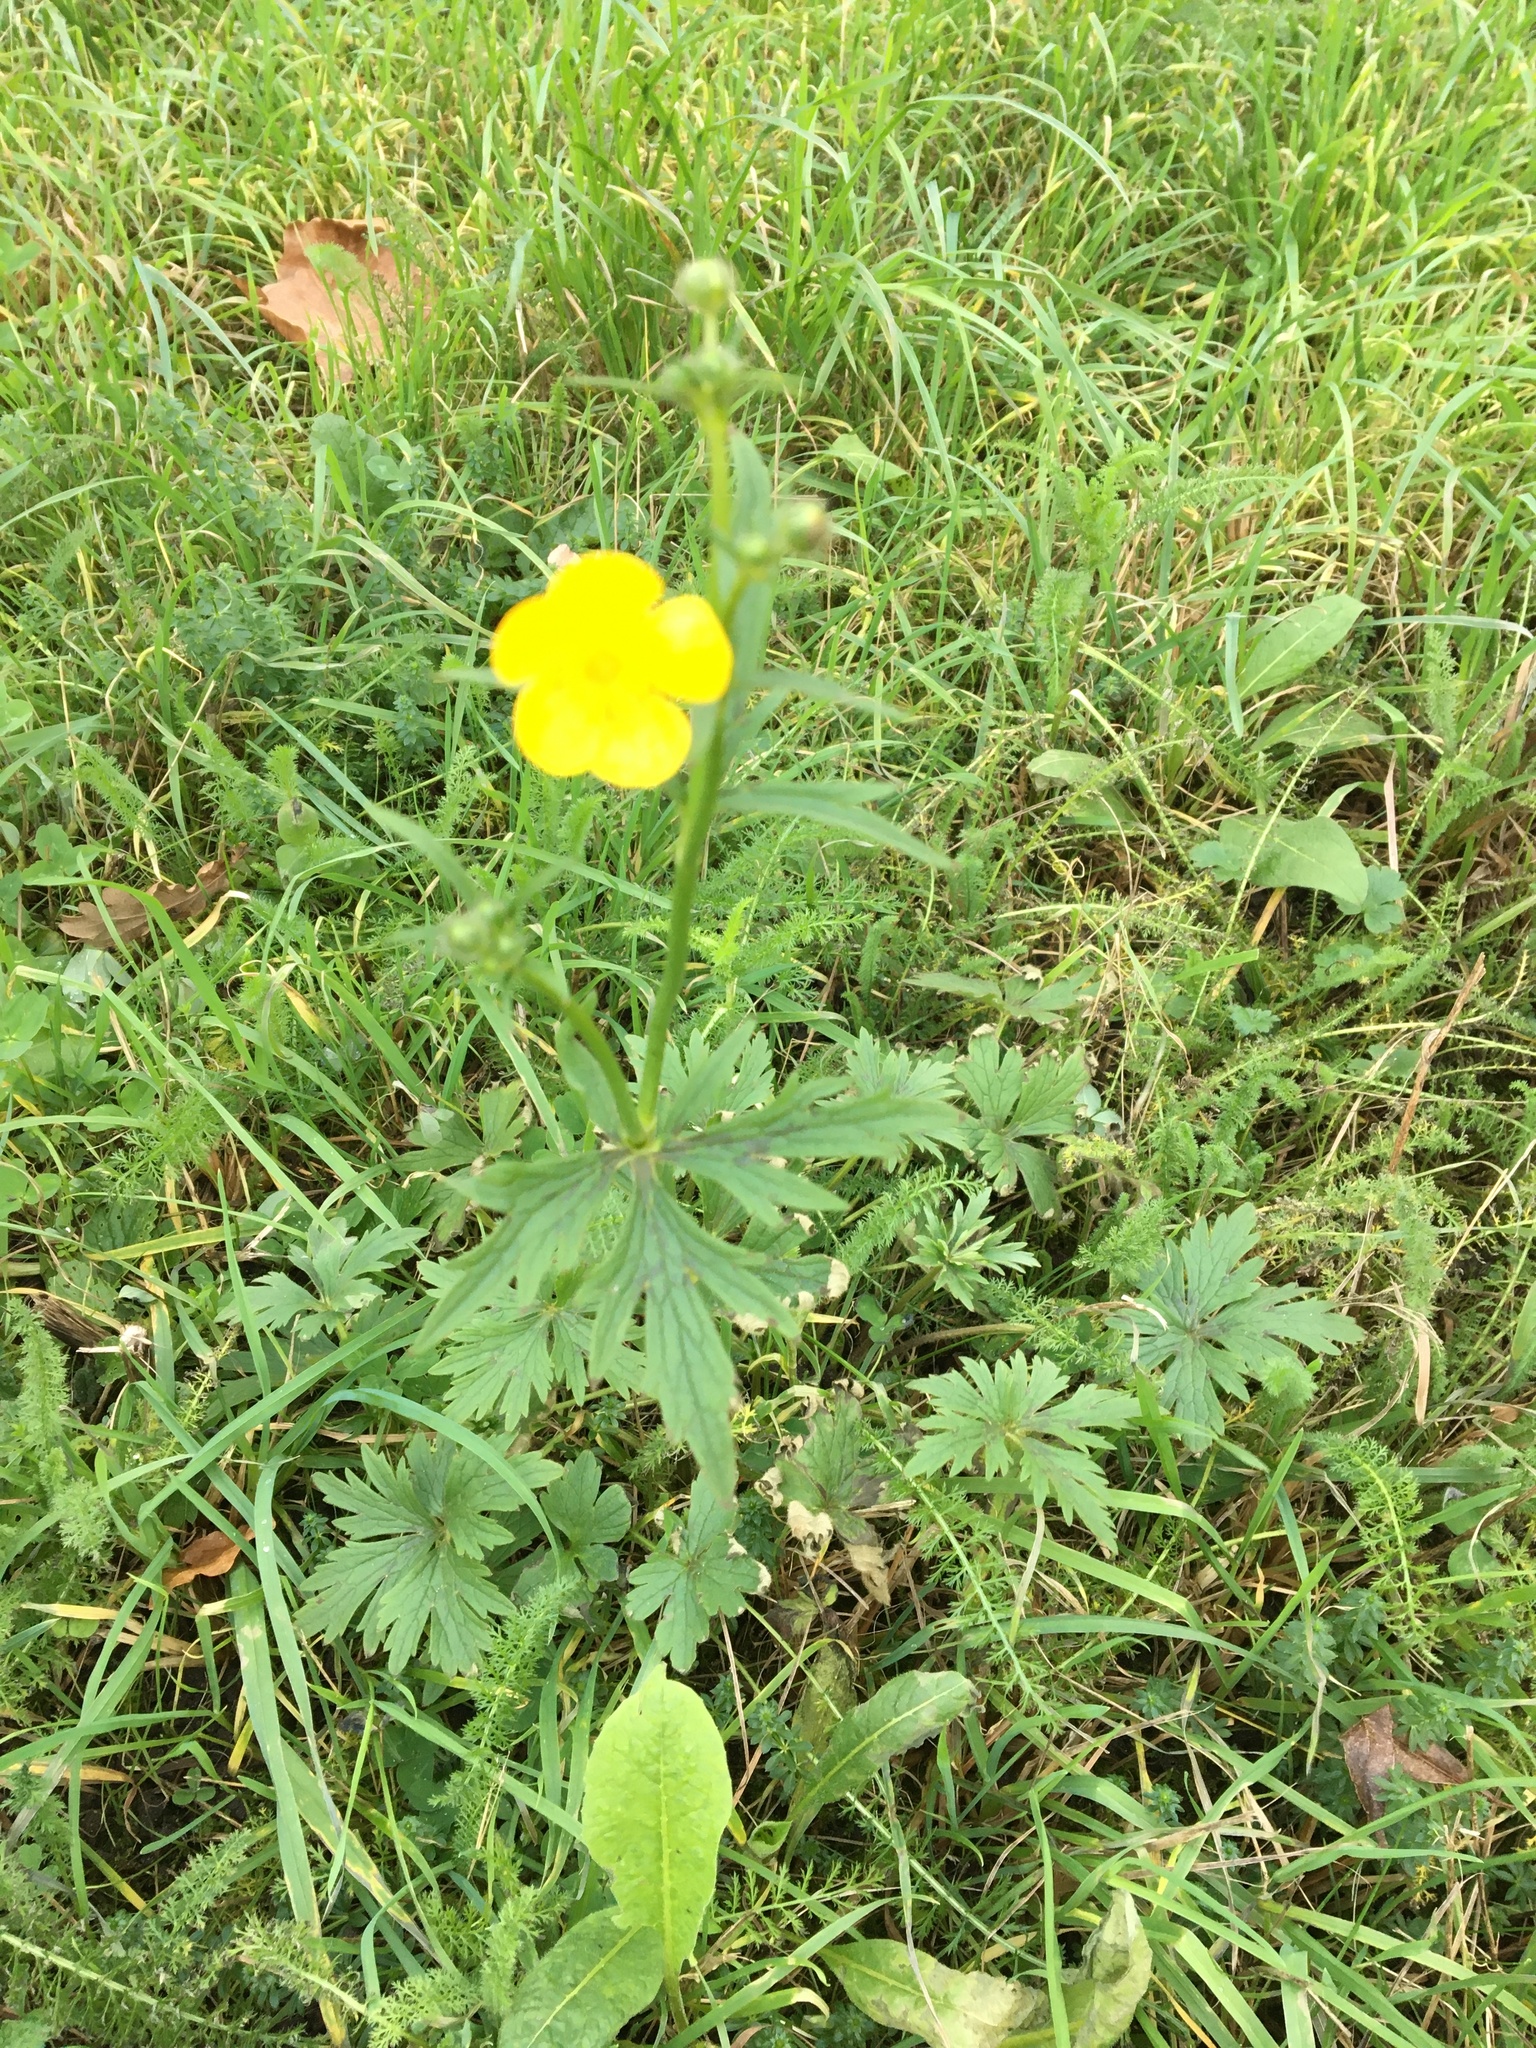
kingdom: Plantae
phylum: Tracheophyta
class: Magnoliopsida
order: Ranunculales
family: Ranunculaceae
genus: Ranunculus
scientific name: Ranunculus acris
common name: Meadow buttercup
